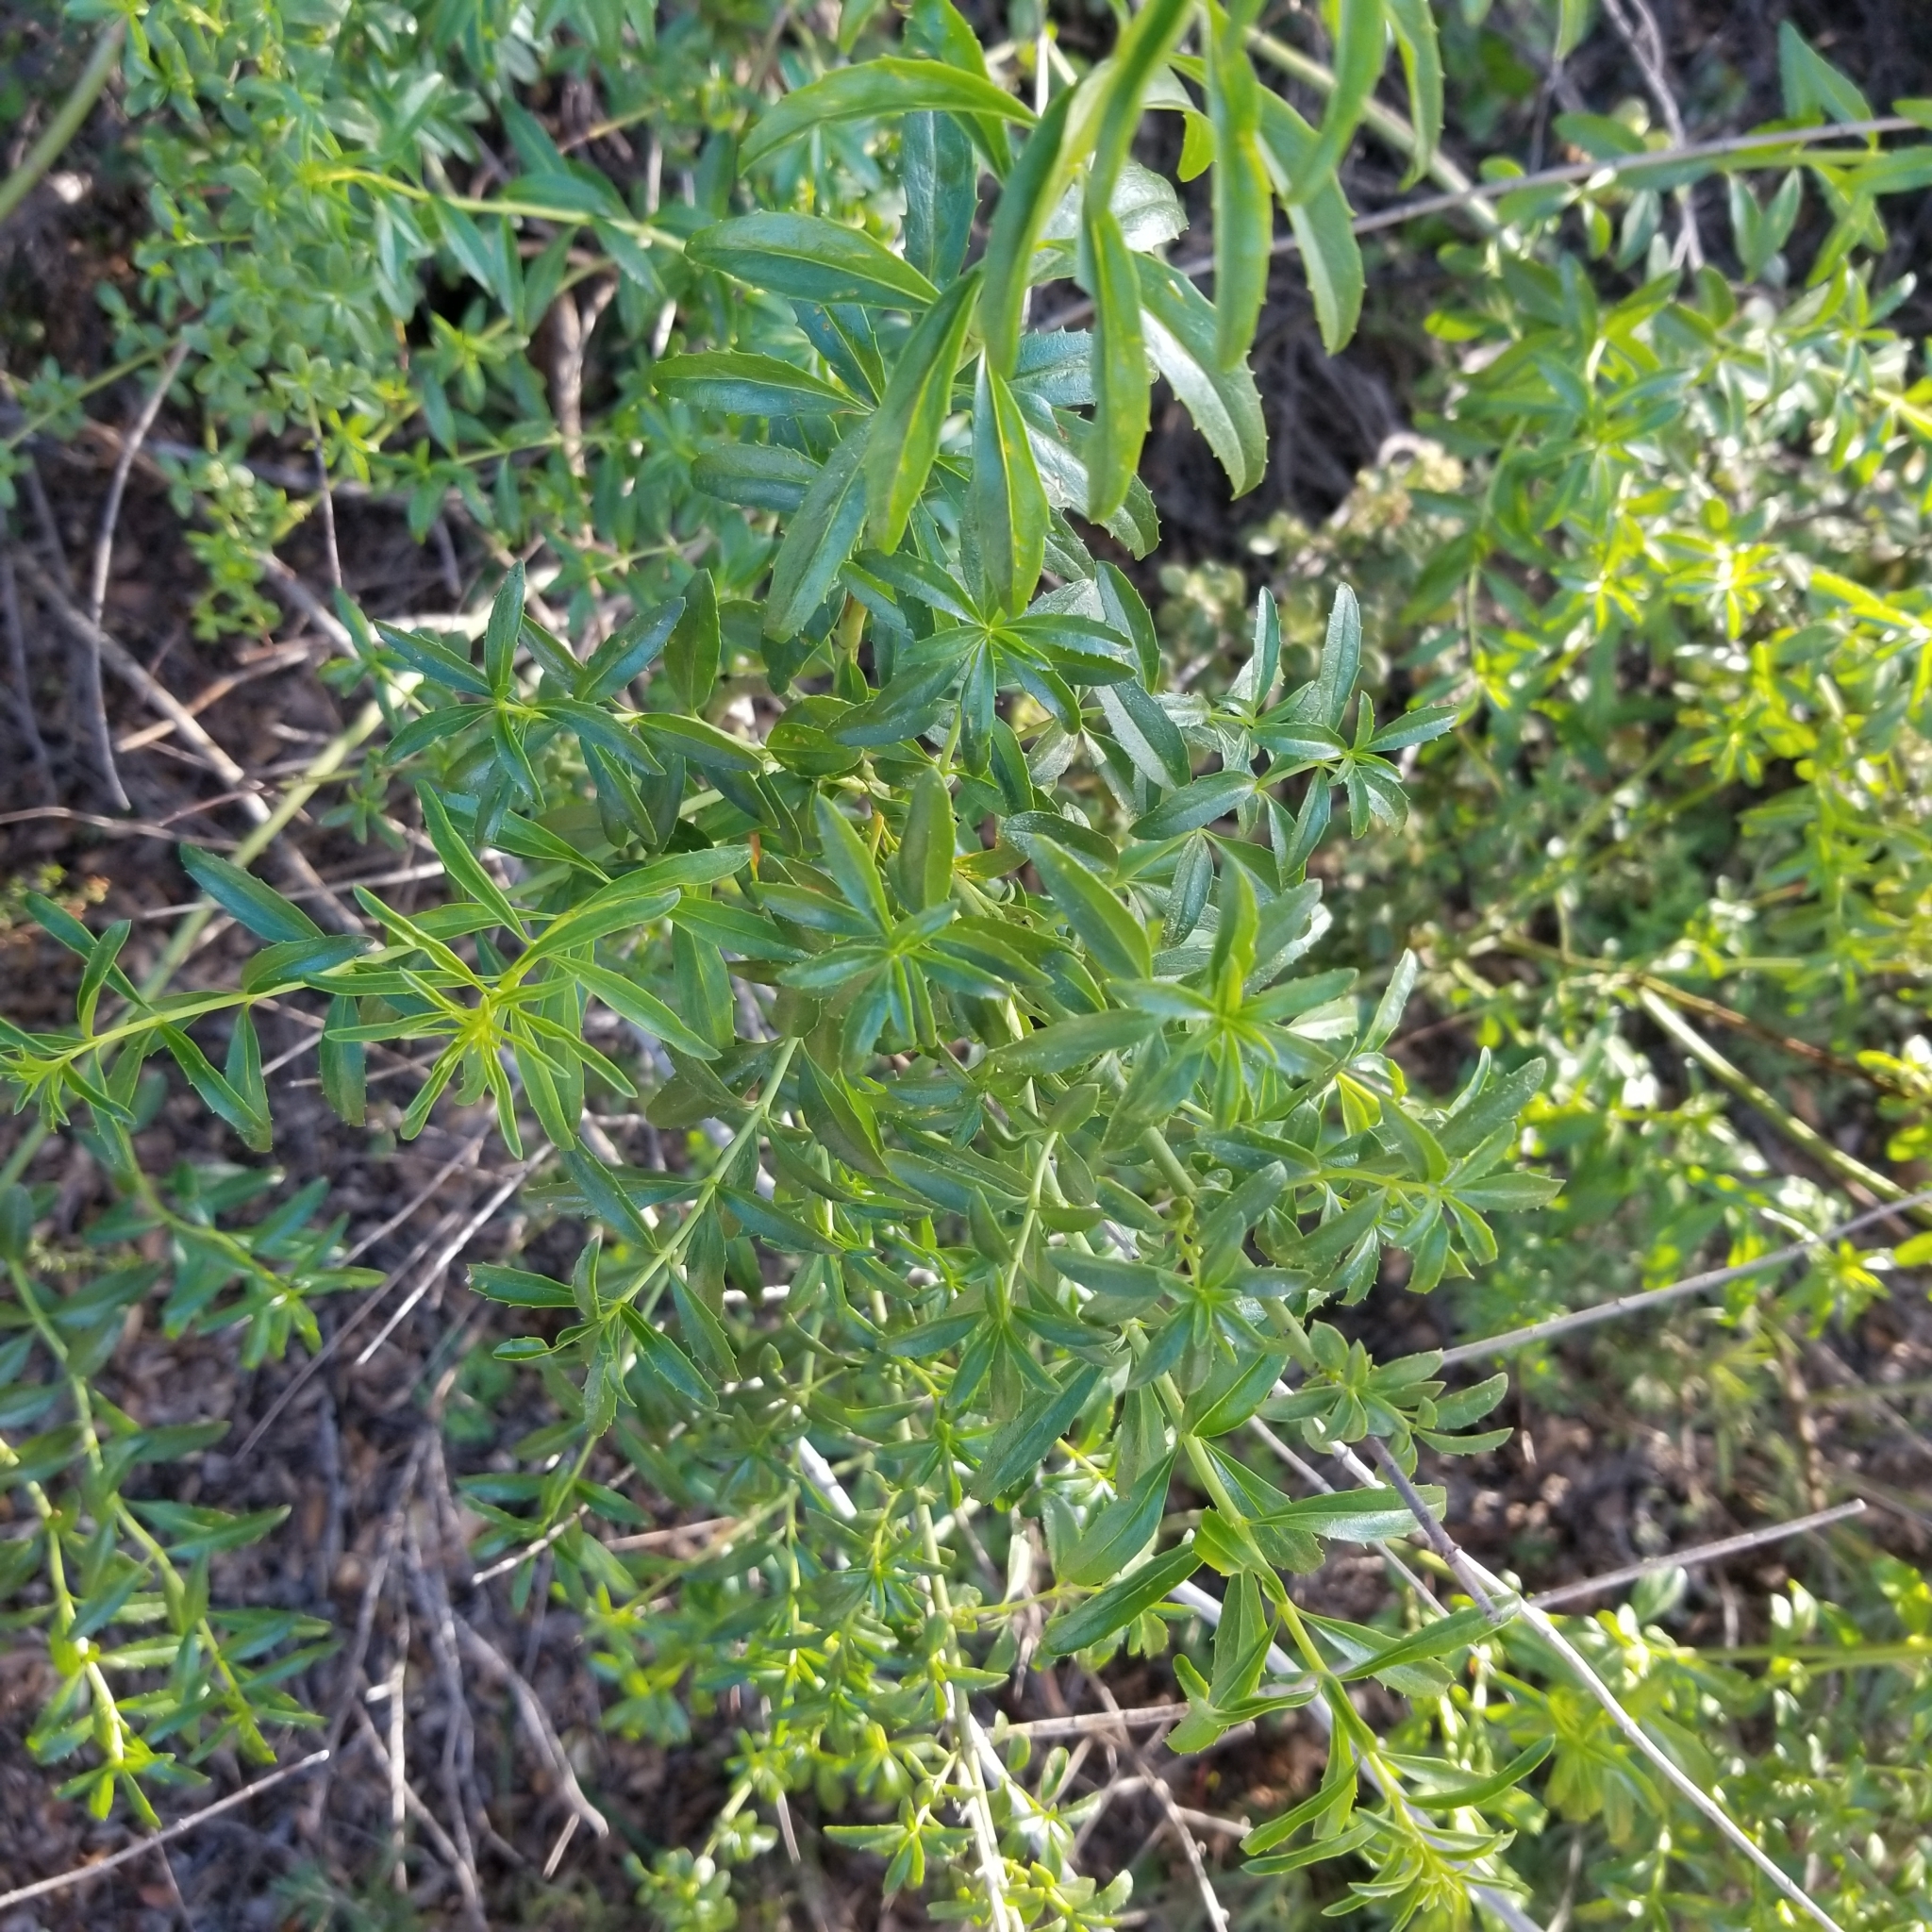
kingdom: Plantae
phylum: Tracheophyta
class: Magnoliopsida
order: Lamiales
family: Plantaginaceae
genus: Keckiella
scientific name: Keckiella ternata
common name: Scarlet keckiella
